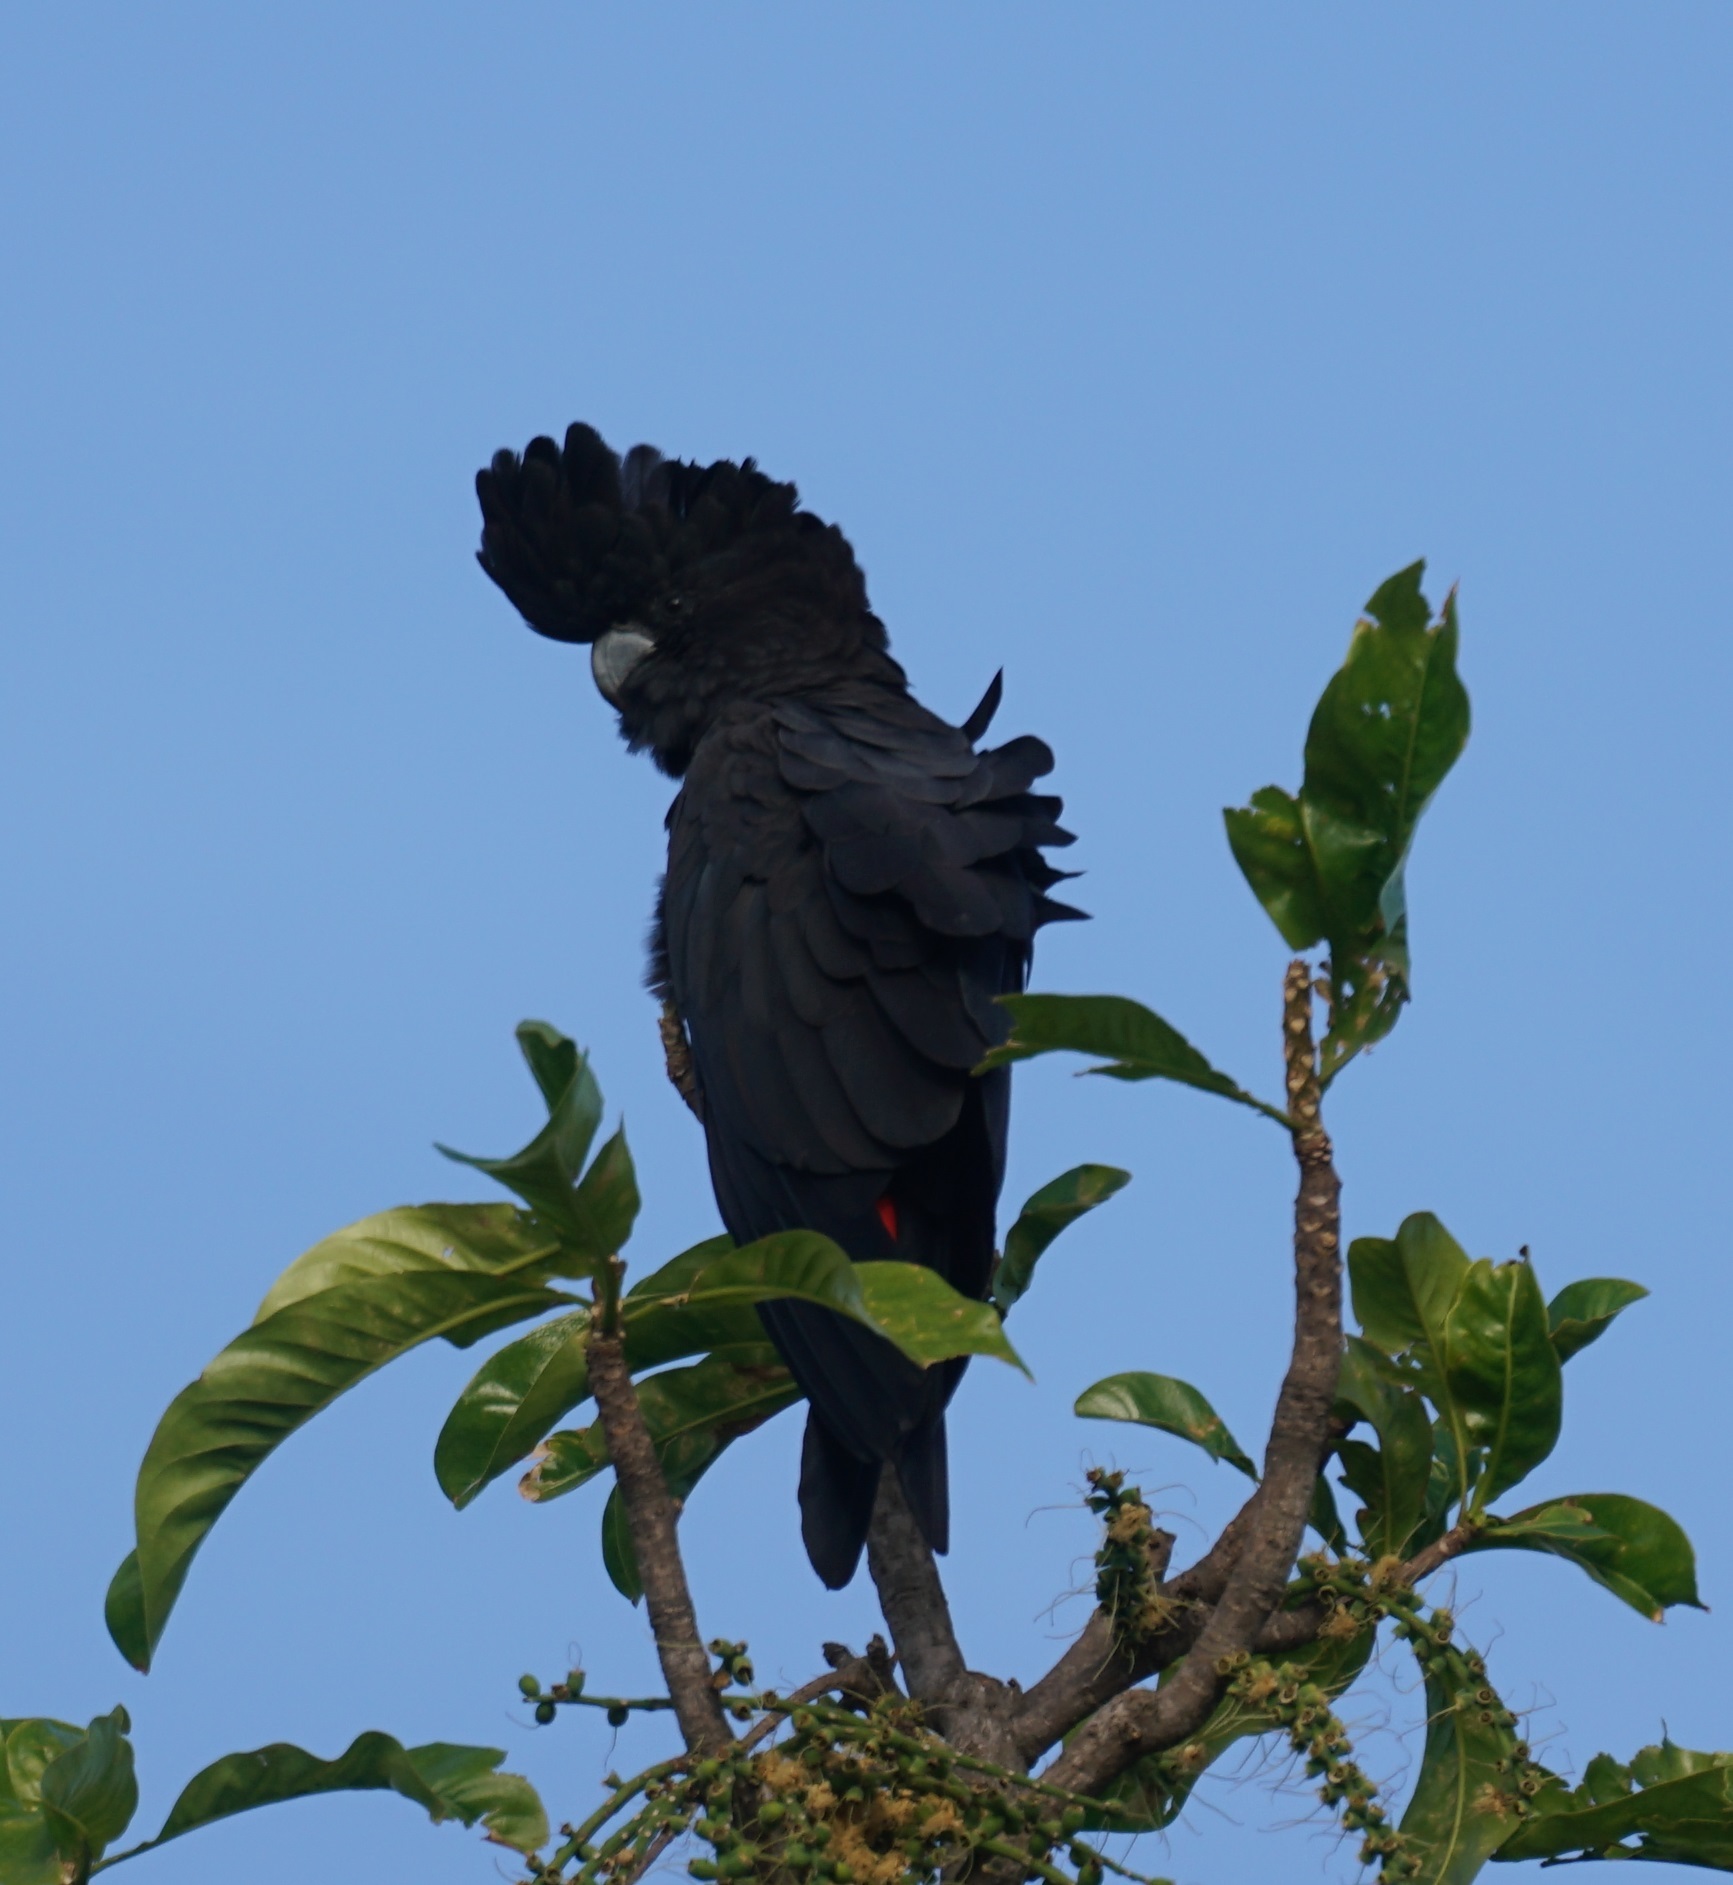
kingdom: Animalia
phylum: Chordata
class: Aves
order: Psittaciformes
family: Psittacidae
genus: Calyptorhynchus
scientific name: Calyptorhynchus banksii
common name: Red-tailed black cockatoo
